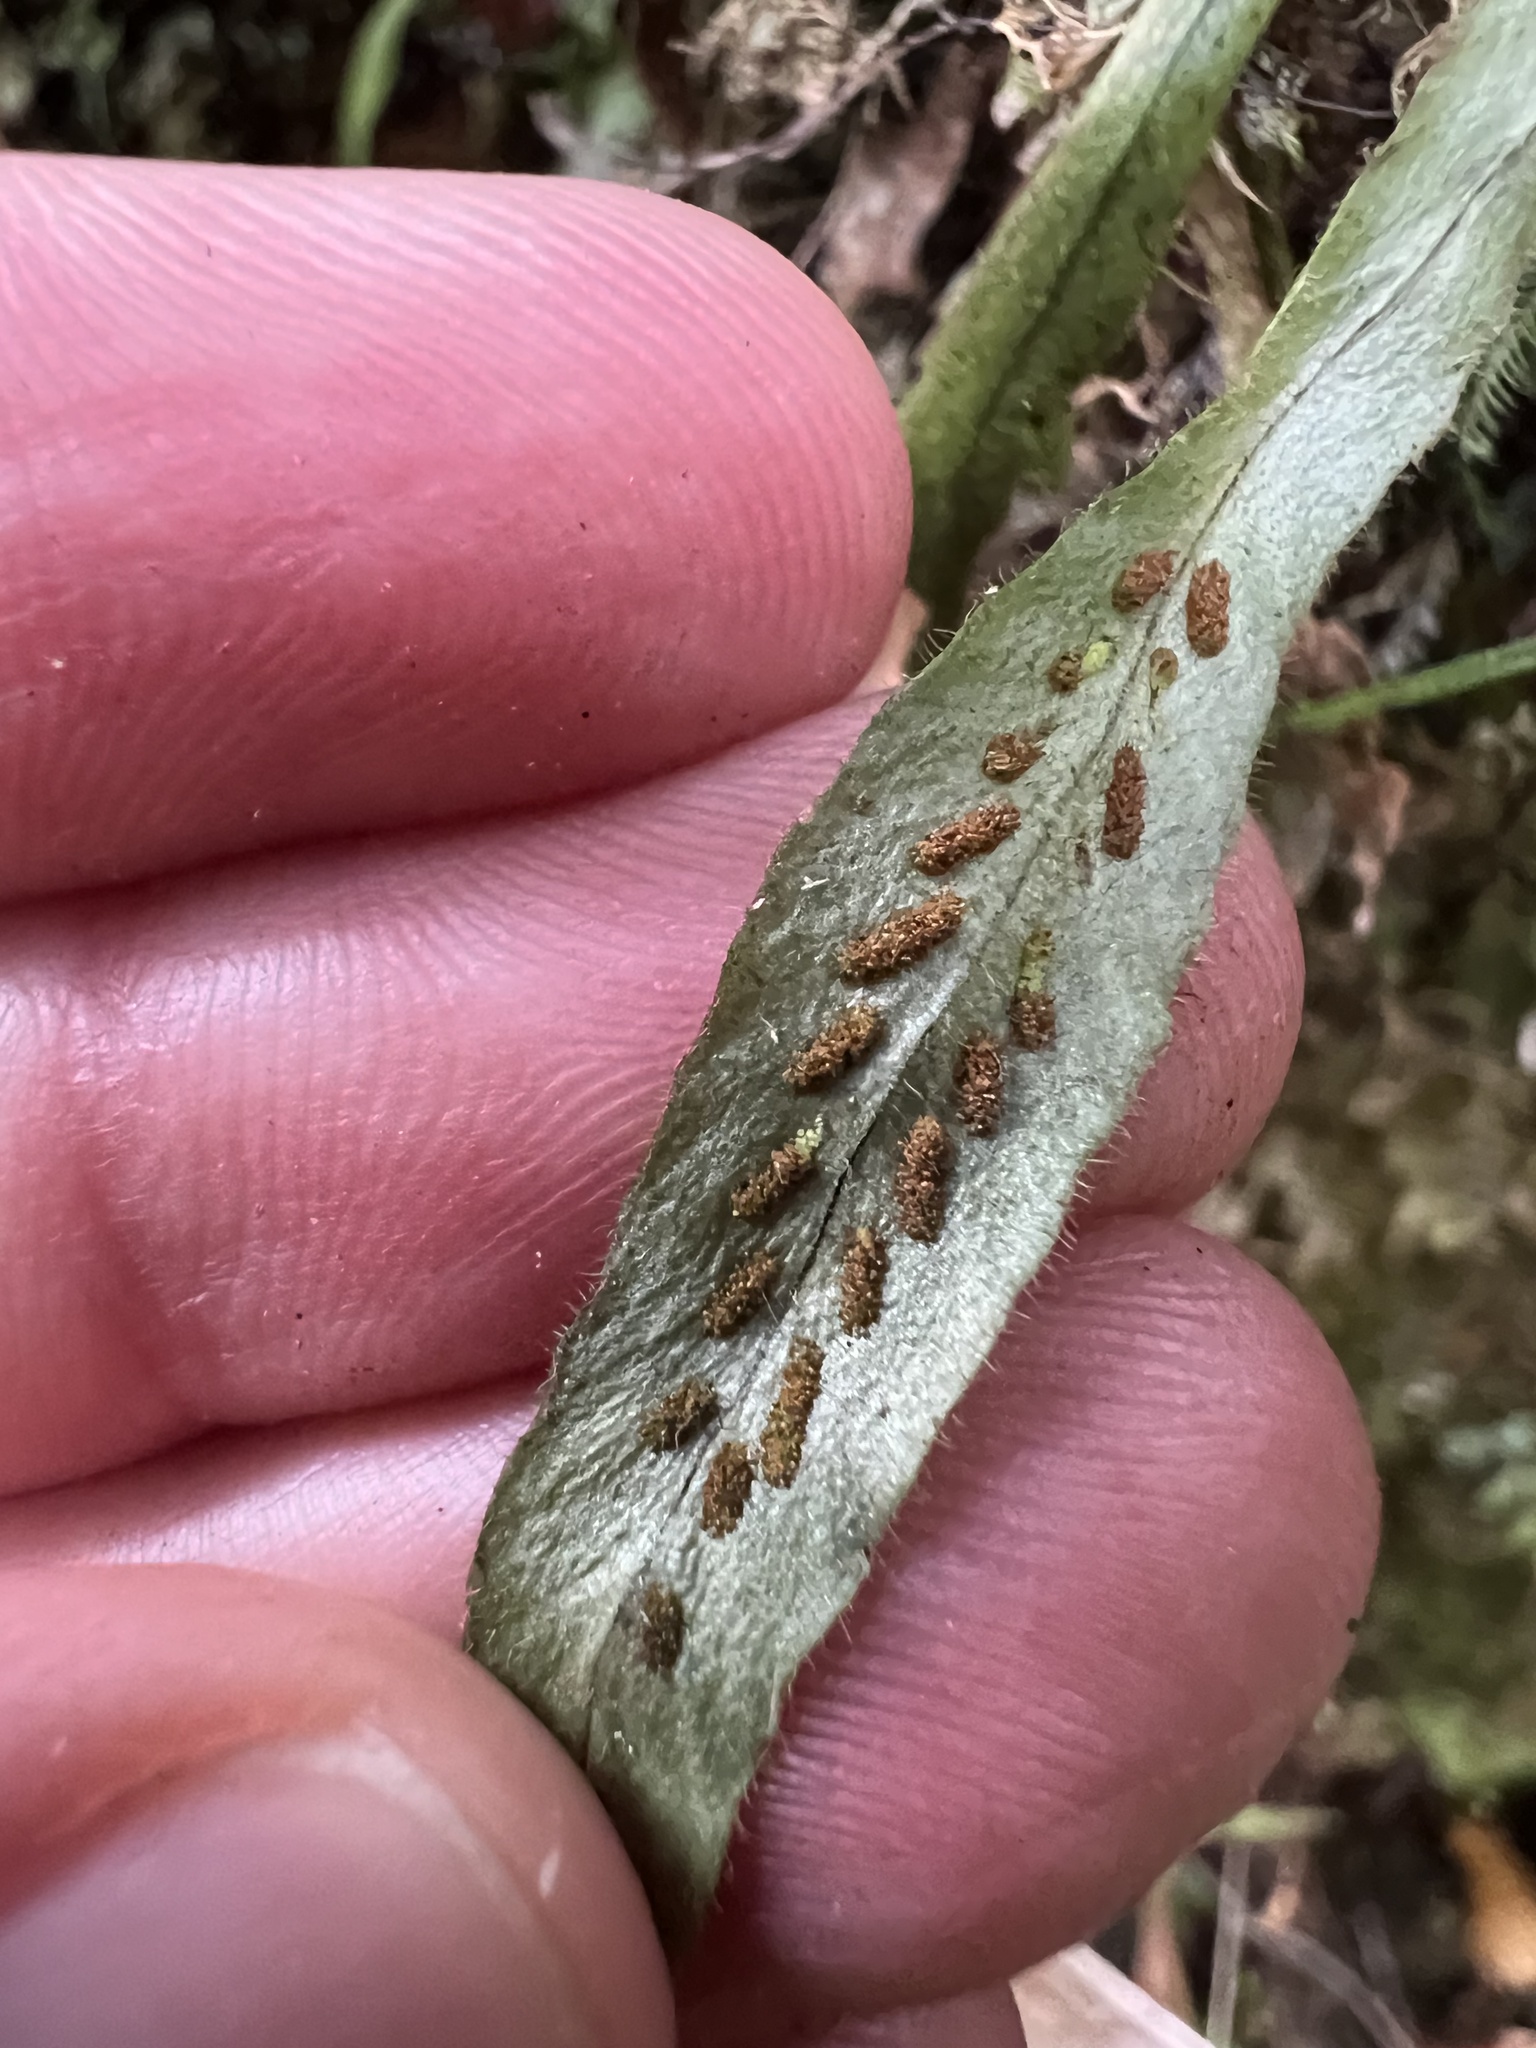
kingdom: Plantae
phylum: Tracheophyta
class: Polypodiopsida
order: Polypodiales
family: Polypodiaceae
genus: Notogrammitis
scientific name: Notogrammitis pseudociliata
